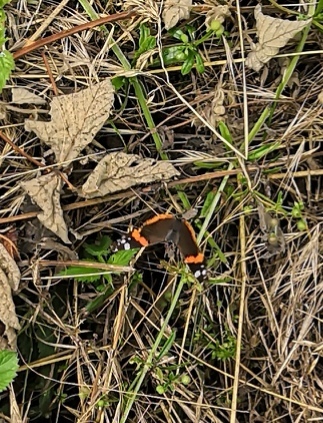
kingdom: Animalia
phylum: Arthropoda
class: Insecta
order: Lepidoptera
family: Nymphalidae
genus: Vanessa
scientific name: Vanessa atalanta
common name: Red admiral
